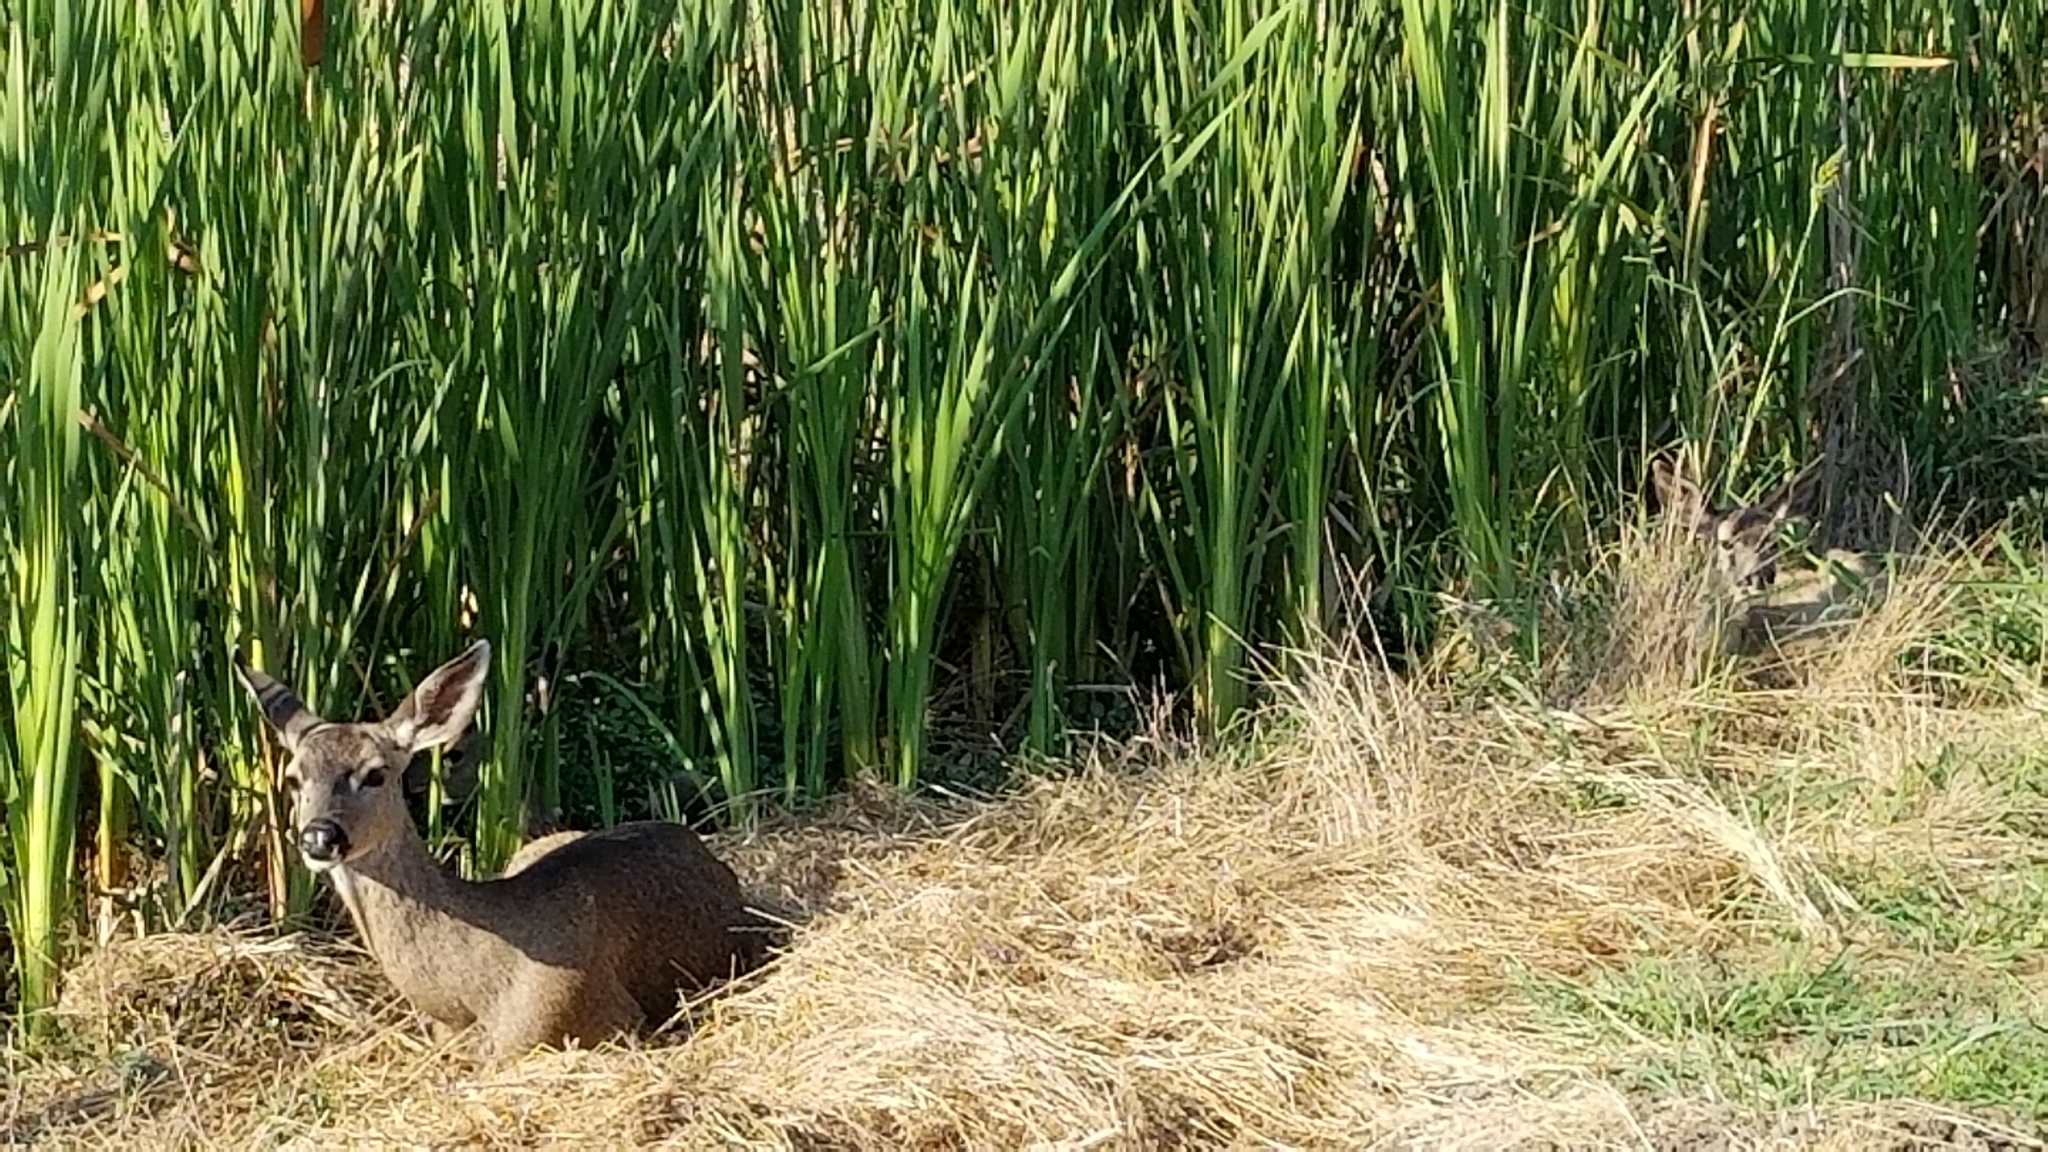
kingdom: Animalia
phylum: Chordata
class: Mammalia
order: Artiodactyla
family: Cervidae
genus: Odocoileus
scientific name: Odocoileus hemionus
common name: Mule deer
